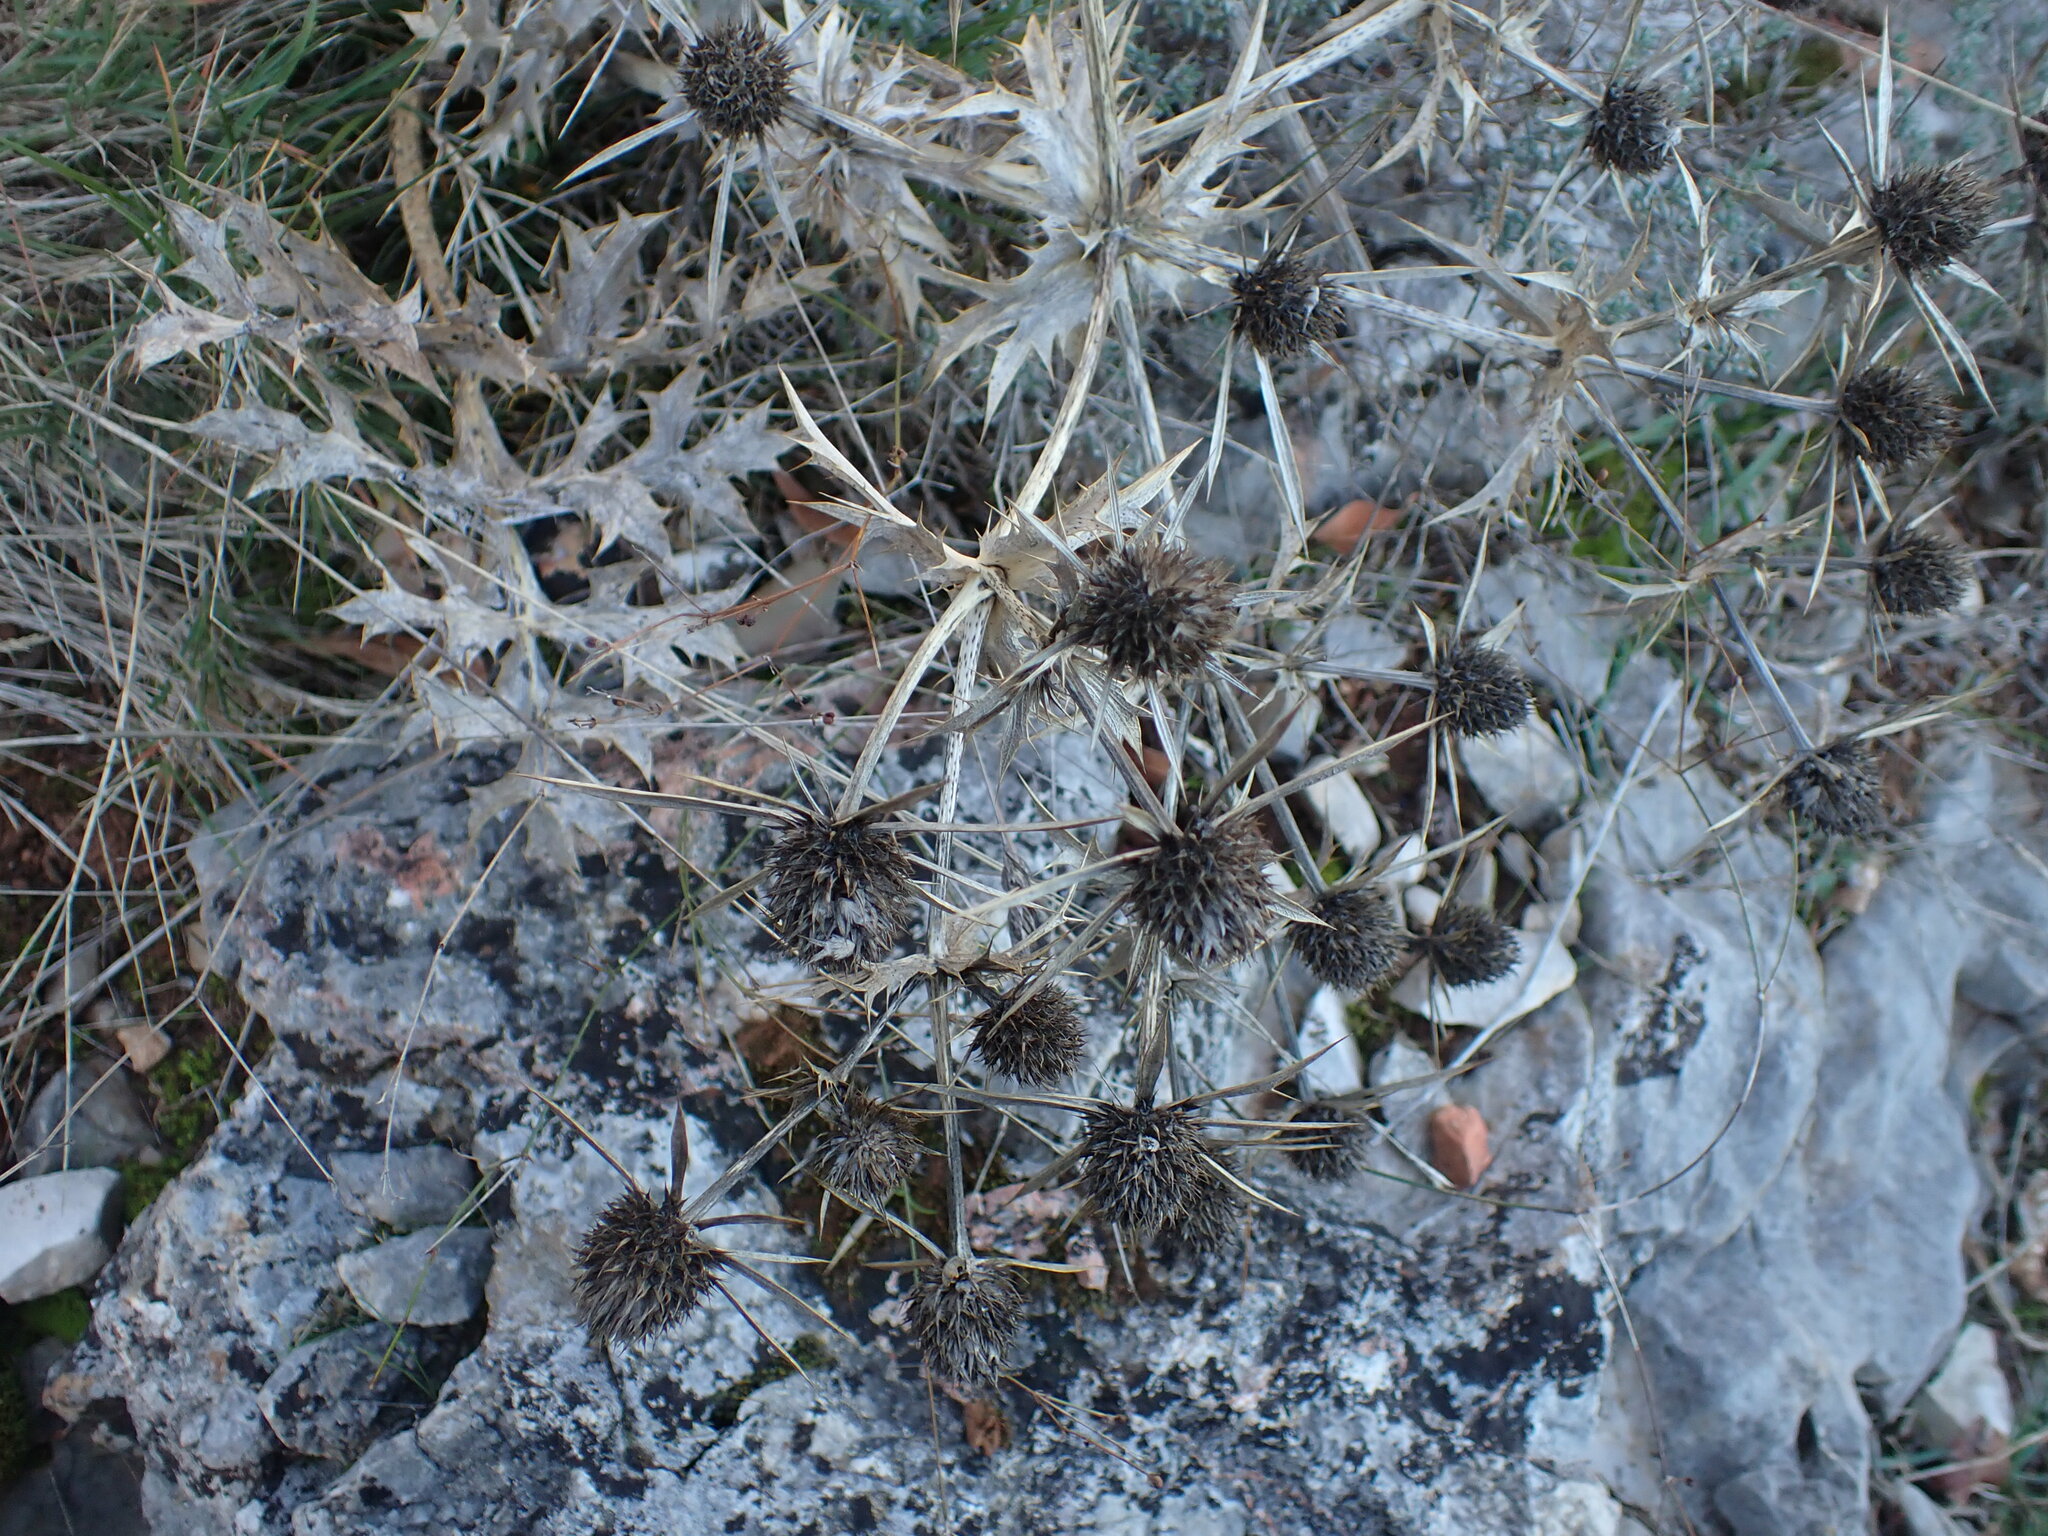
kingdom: Plantae
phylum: Tracheophyta
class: Magnoliopsida
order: Apiales
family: Apiaceae
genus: Eryngium
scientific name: Eryngium campestre
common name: Field eryngo
